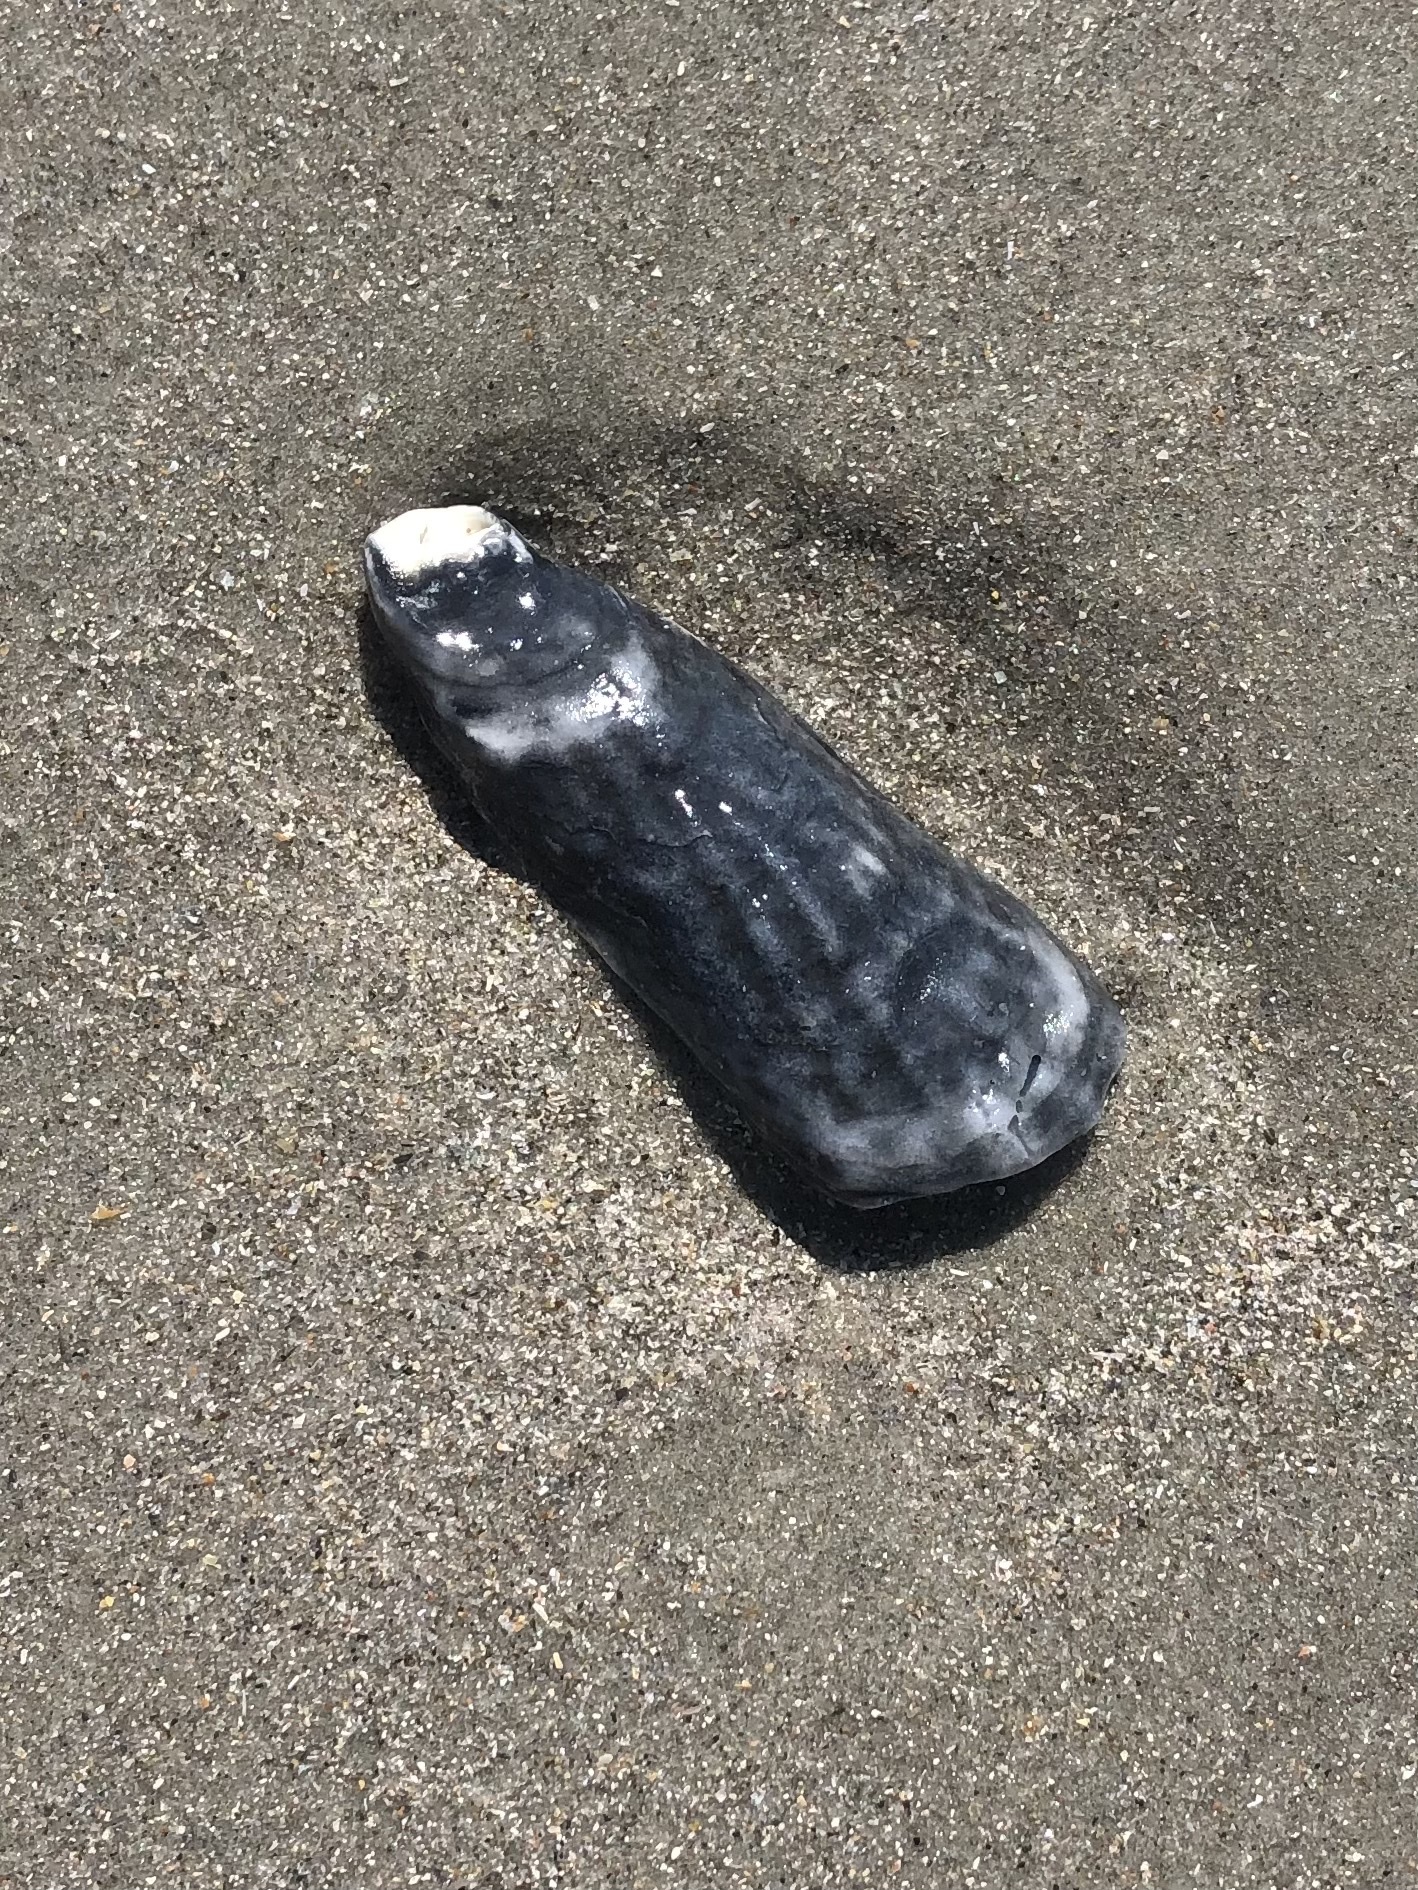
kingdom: Animalia
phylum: Mollusca
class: Bivalvia
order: Ostreida
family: Ostreidae
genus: Crassostrea
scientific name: Crassostrea virginica
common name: American oyster
